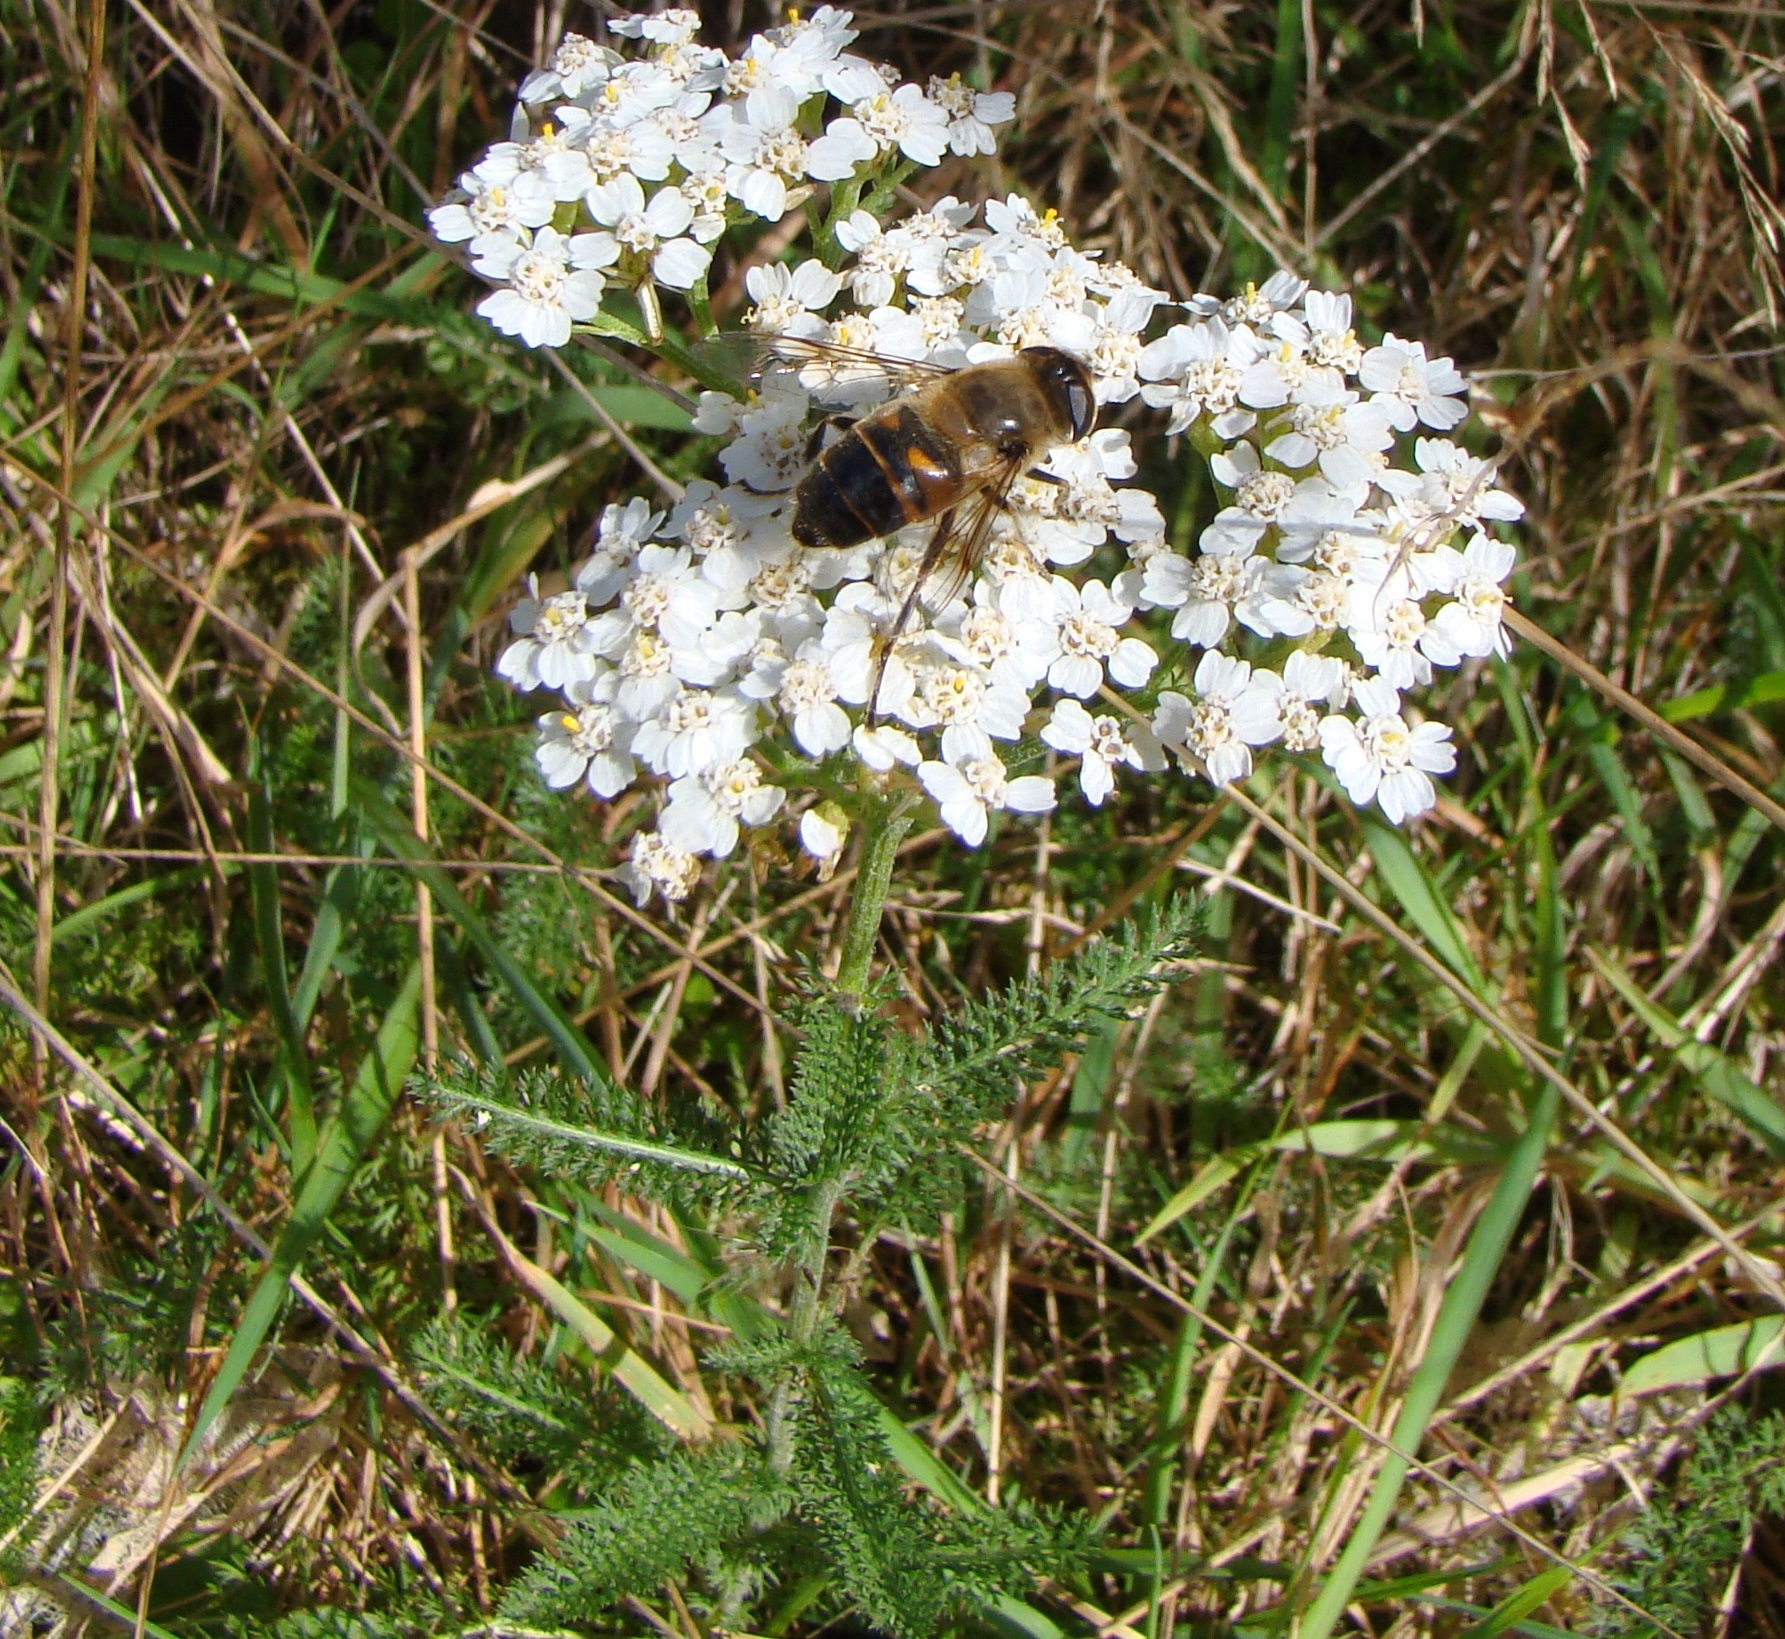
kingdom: Animalia
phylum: Arthropoda
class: Insecta
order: Diptera
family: Syrphidae
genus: Eristalis
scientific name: Eristalis tenax
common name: Drone fly
